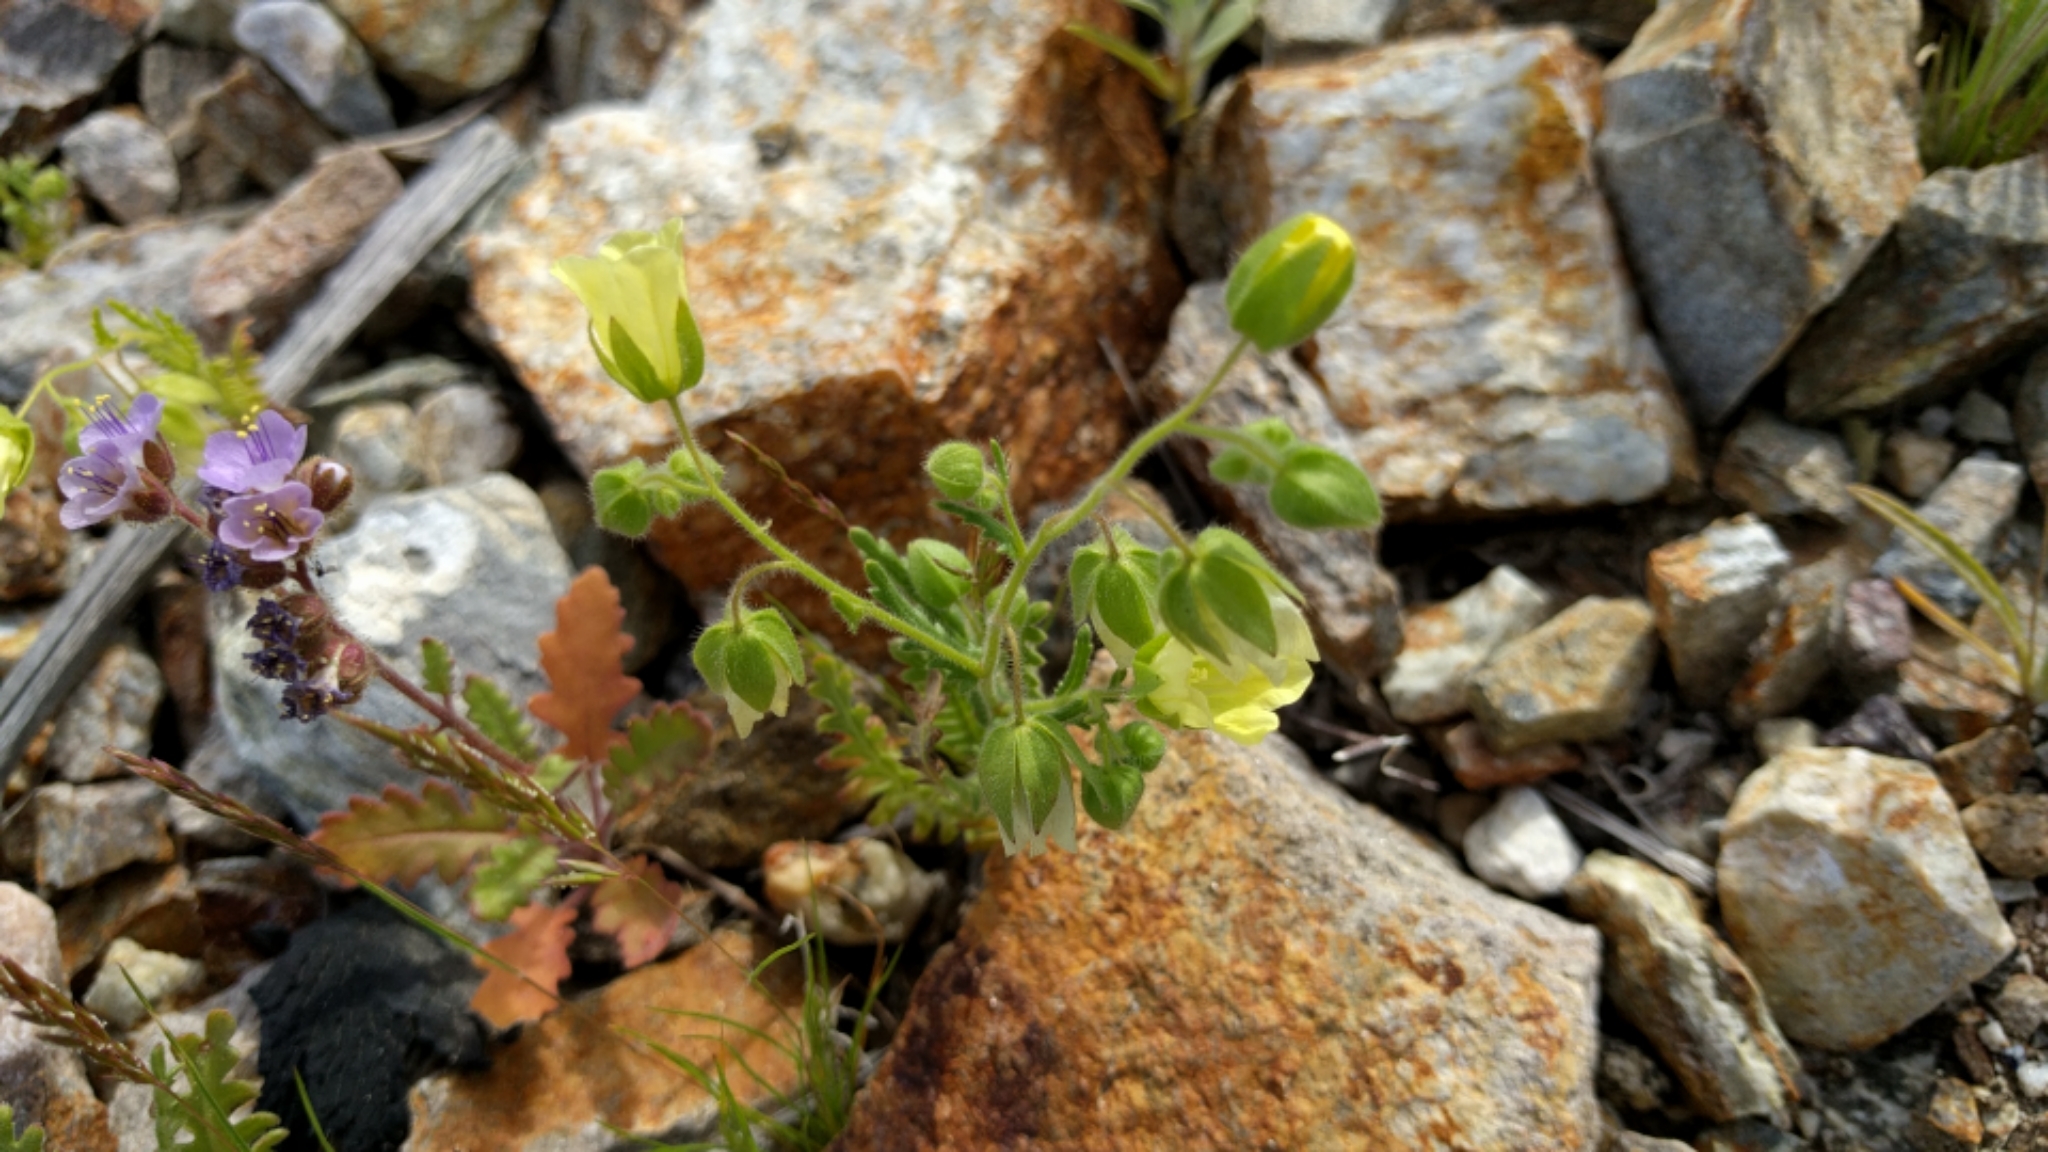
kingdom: Plantae
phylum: Tracheophyta
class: Magnoliopsida
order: Boraginales
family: Hydrophyllaceae
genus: Emmenanthe
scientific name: Emmenanthe penduliflora
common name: Whispering-bells
